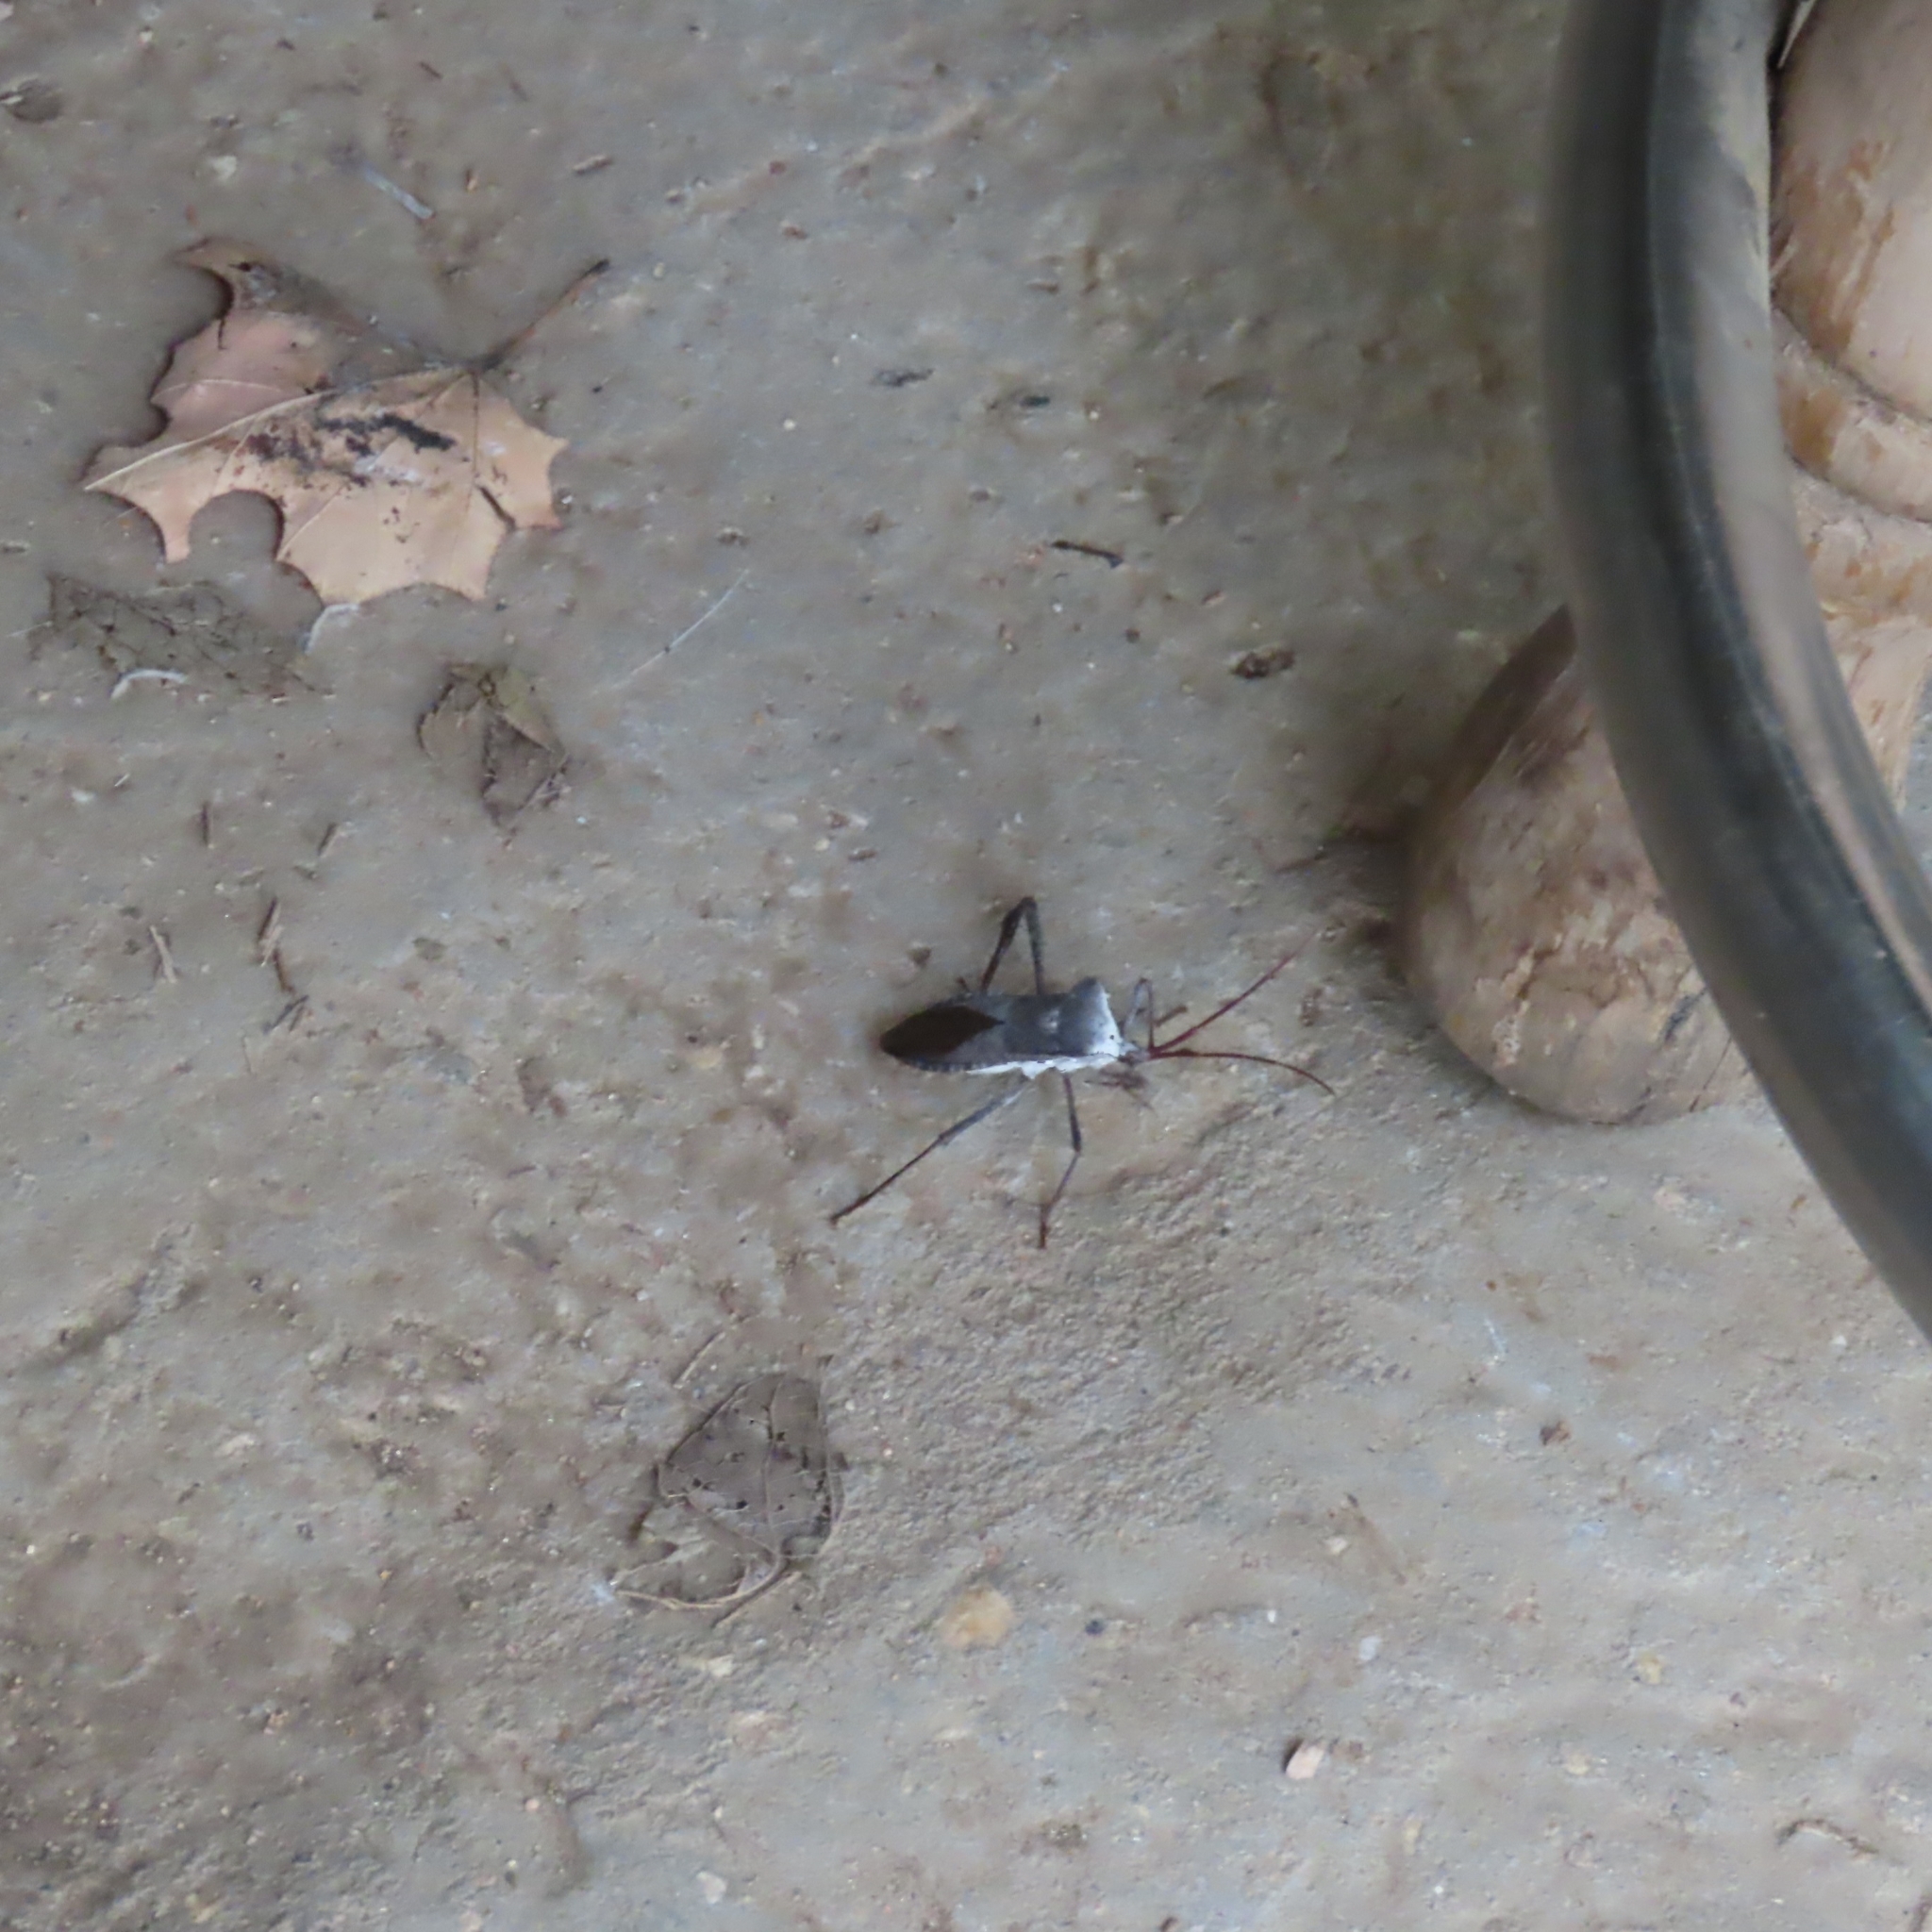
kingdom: Animalia
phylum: Arthropoda
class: Insecta
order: Hemiptera
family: Coreidae
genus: Acanthocephala
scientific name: Acanthocephala declivis
